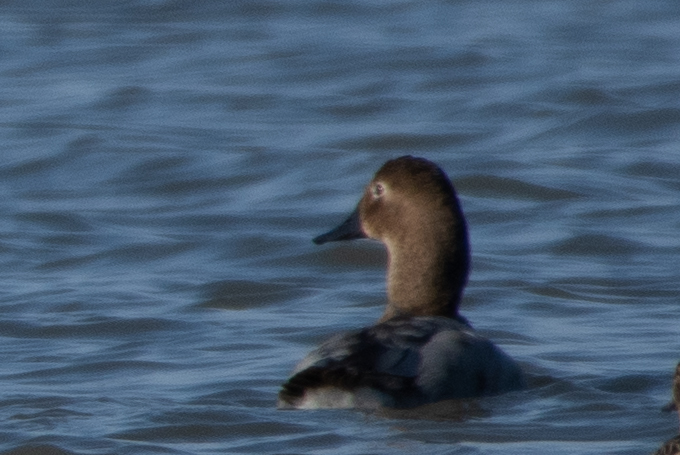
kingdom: Animalia
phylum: Chordata
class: Aves
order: Anseriformes
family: Anatidae
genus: Aythya
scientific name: Aythya valisineria
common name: Canvasback
